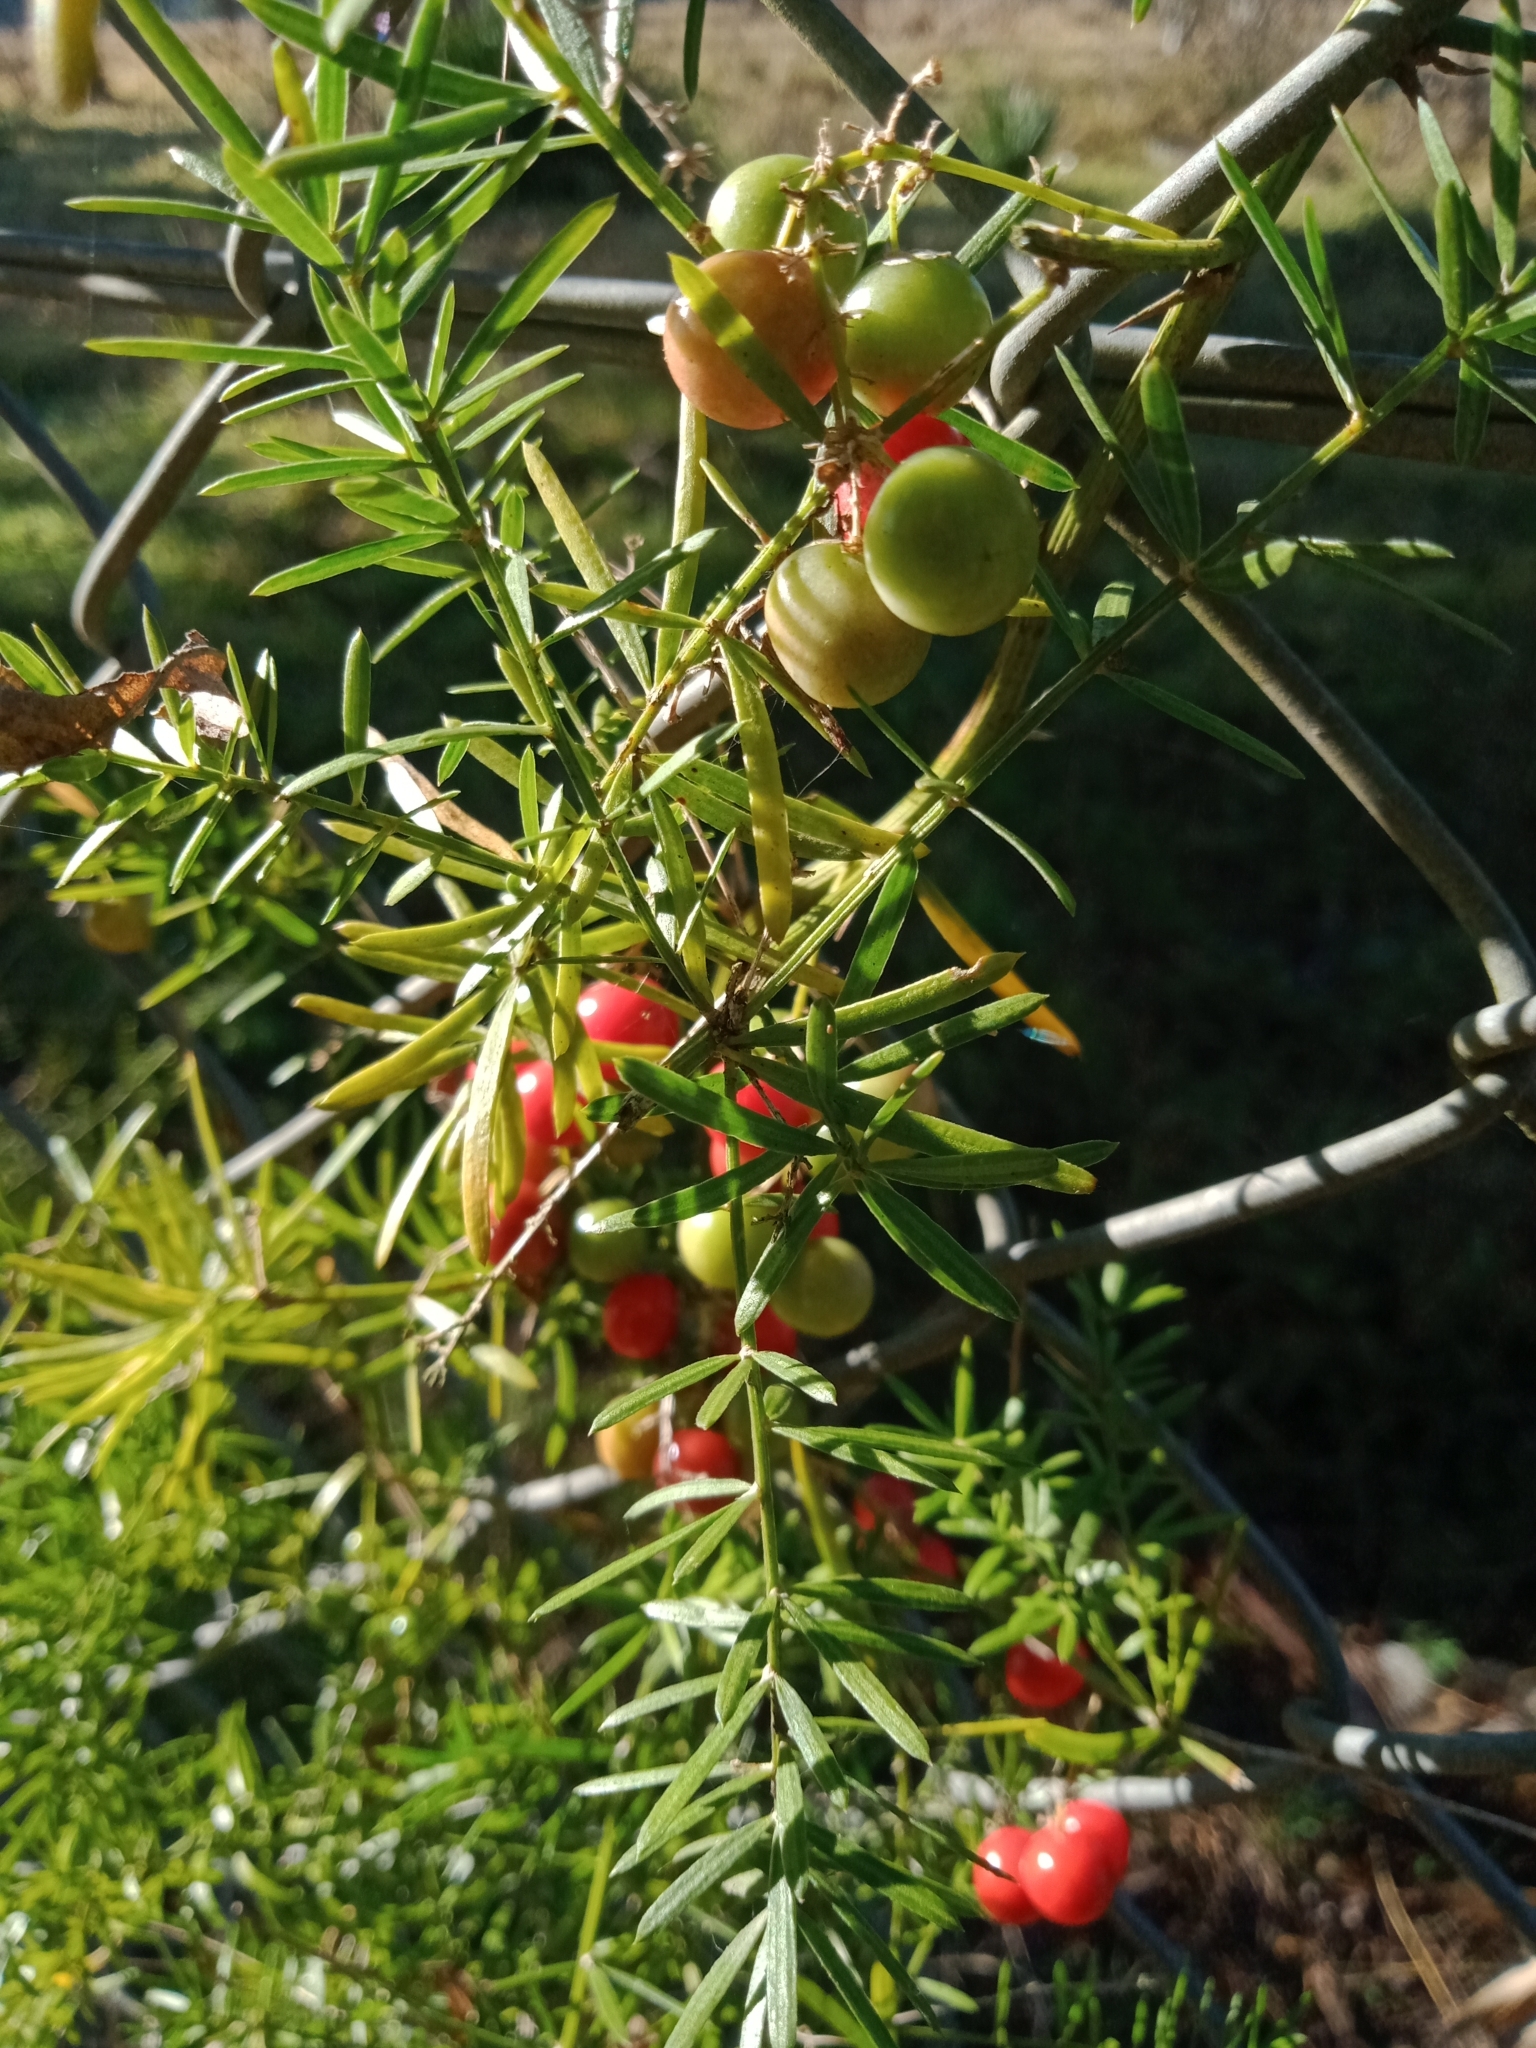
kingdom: Plantae
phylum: Tracheophyta
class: Liliopsida
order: Asparagales
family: Asparagaceae
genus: Asparagus
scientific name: Asparagus aethiopicus
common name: Sprenger's asparagus fern
